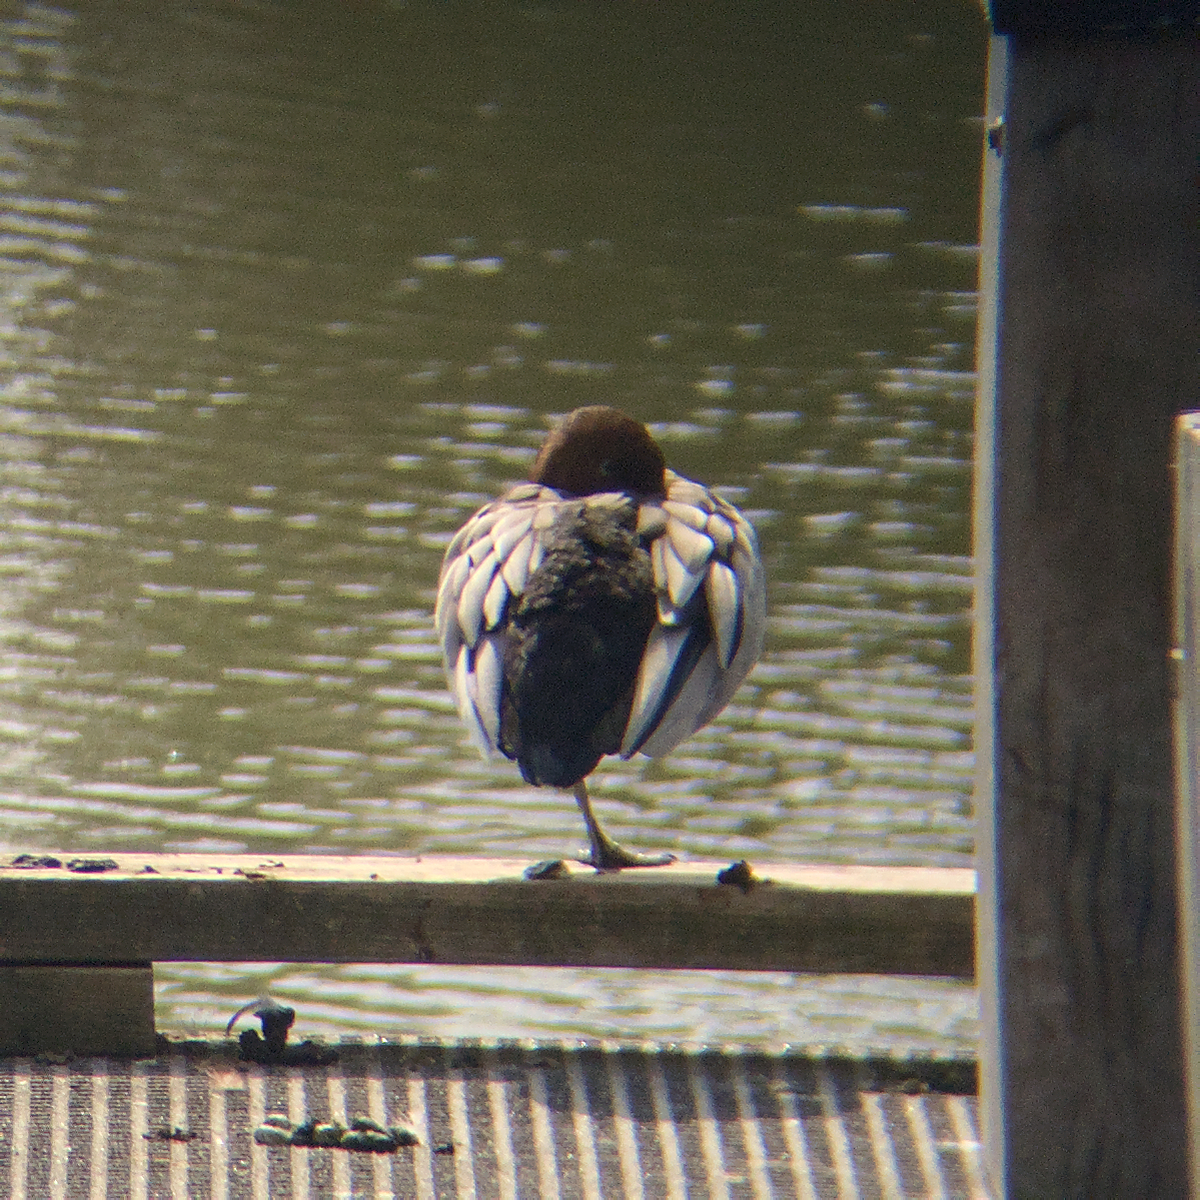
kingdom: Animalia
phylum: Chordata
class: Aves
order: Anseriformes
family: Anatidae
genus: Chenonetta
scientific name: Chenonetta jubata
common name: Maned duck
